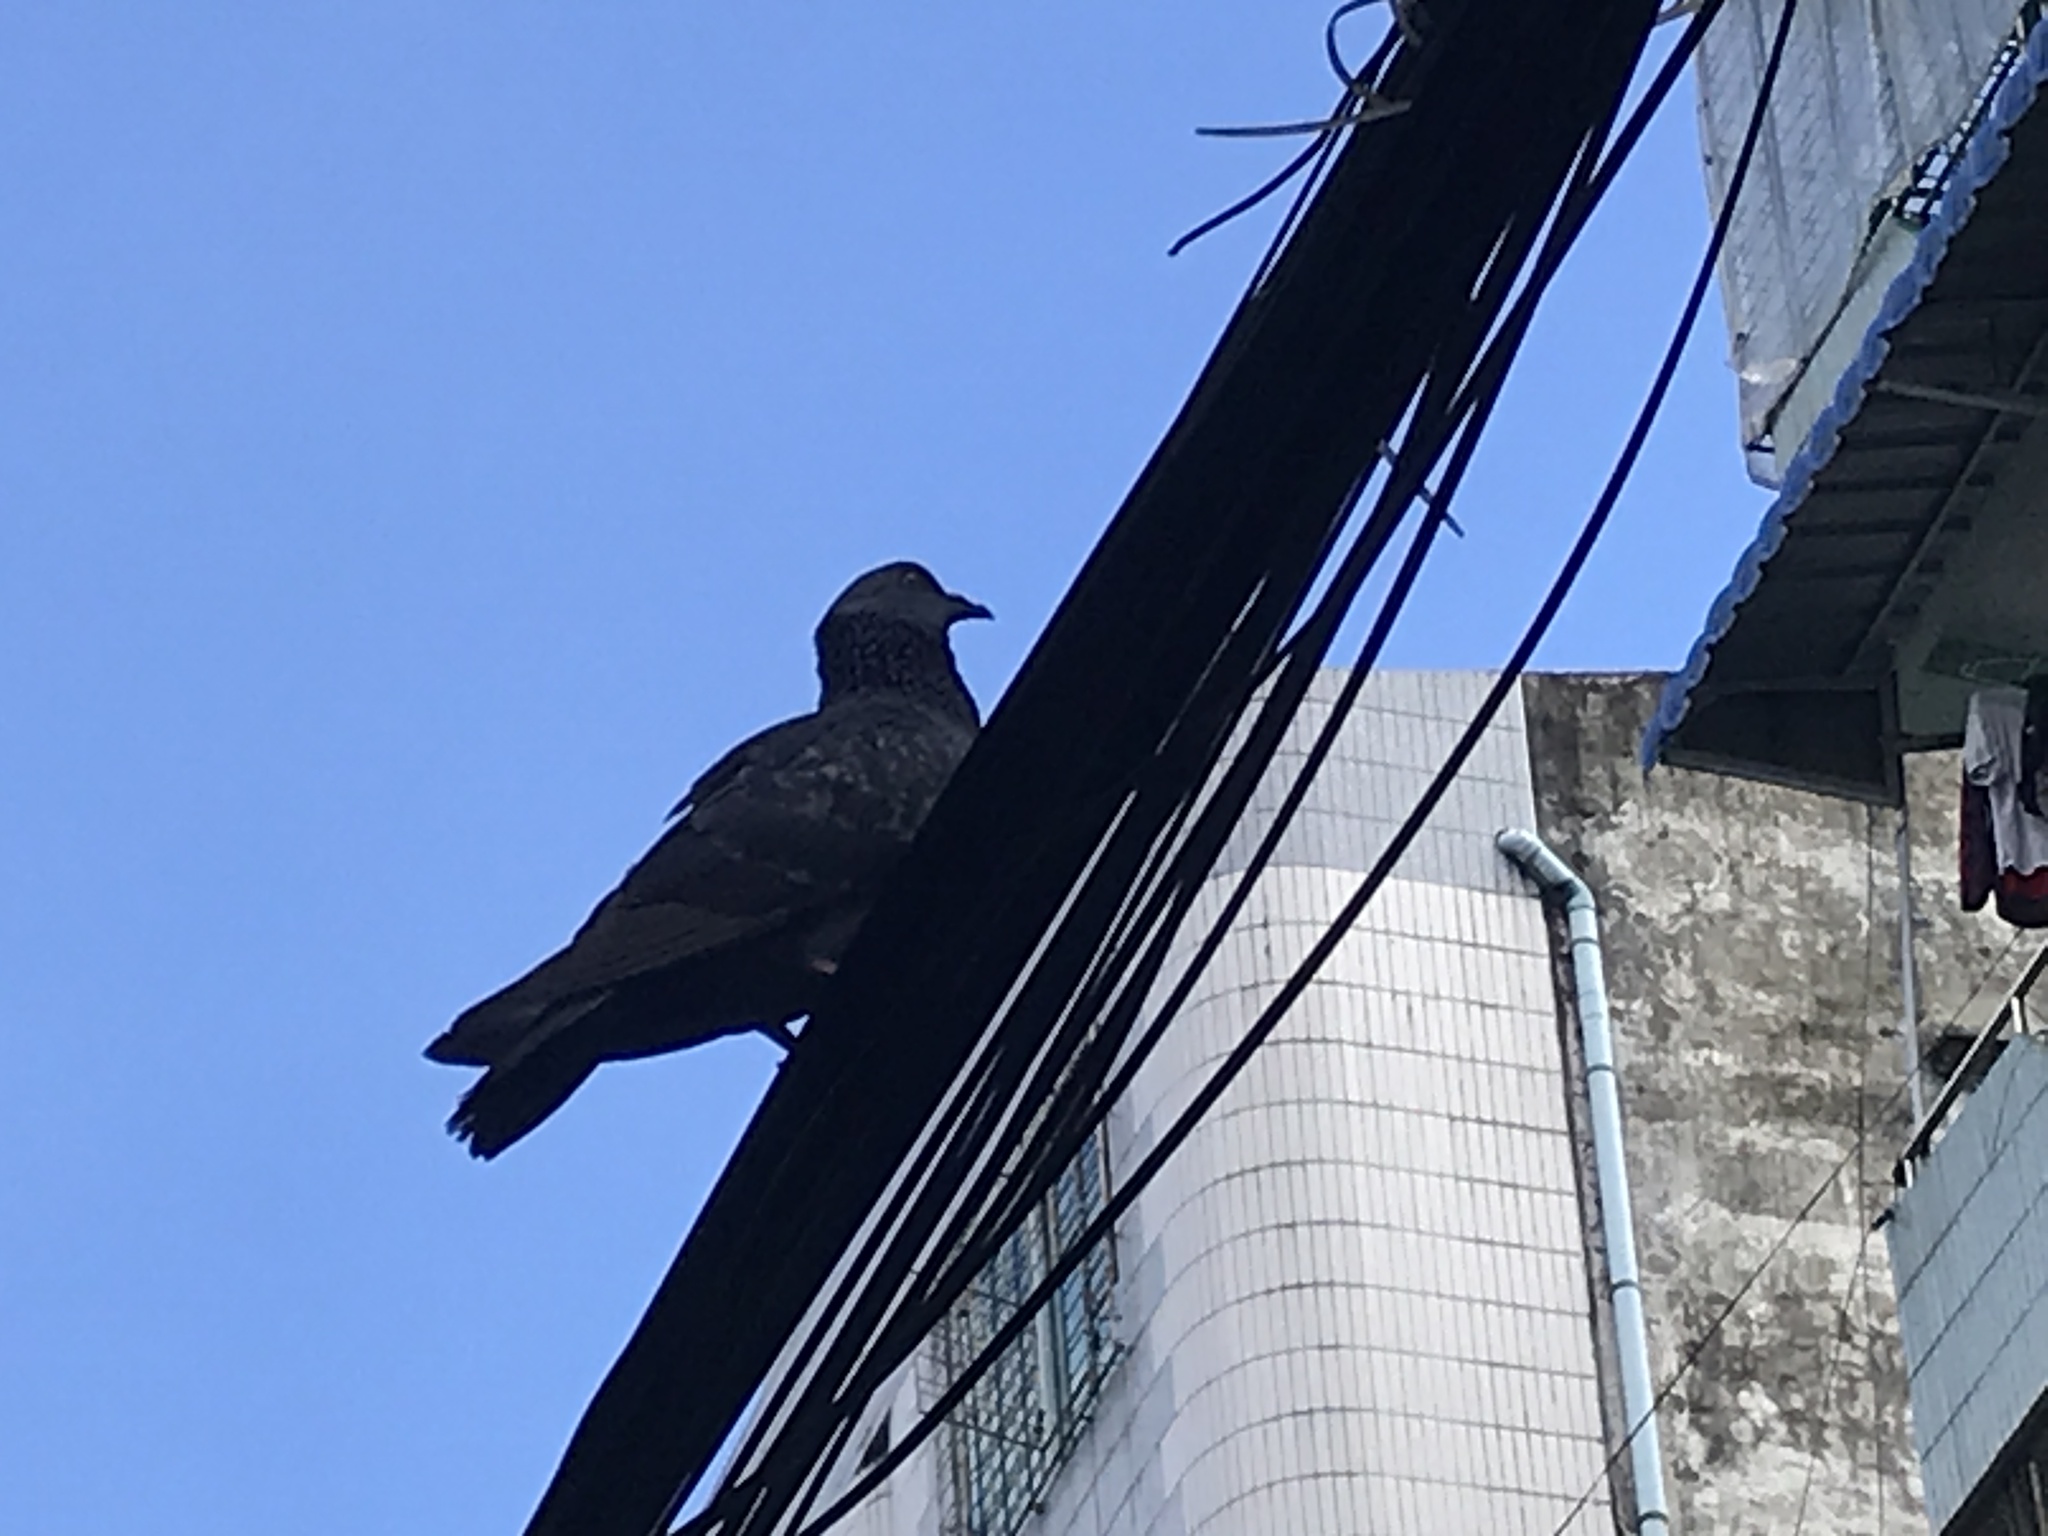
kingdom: Animalia
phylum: Chordata
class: Aves
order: Columbiformes
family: Columbidae
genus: Columba
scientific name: Columba livia
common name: Rock pigeon
